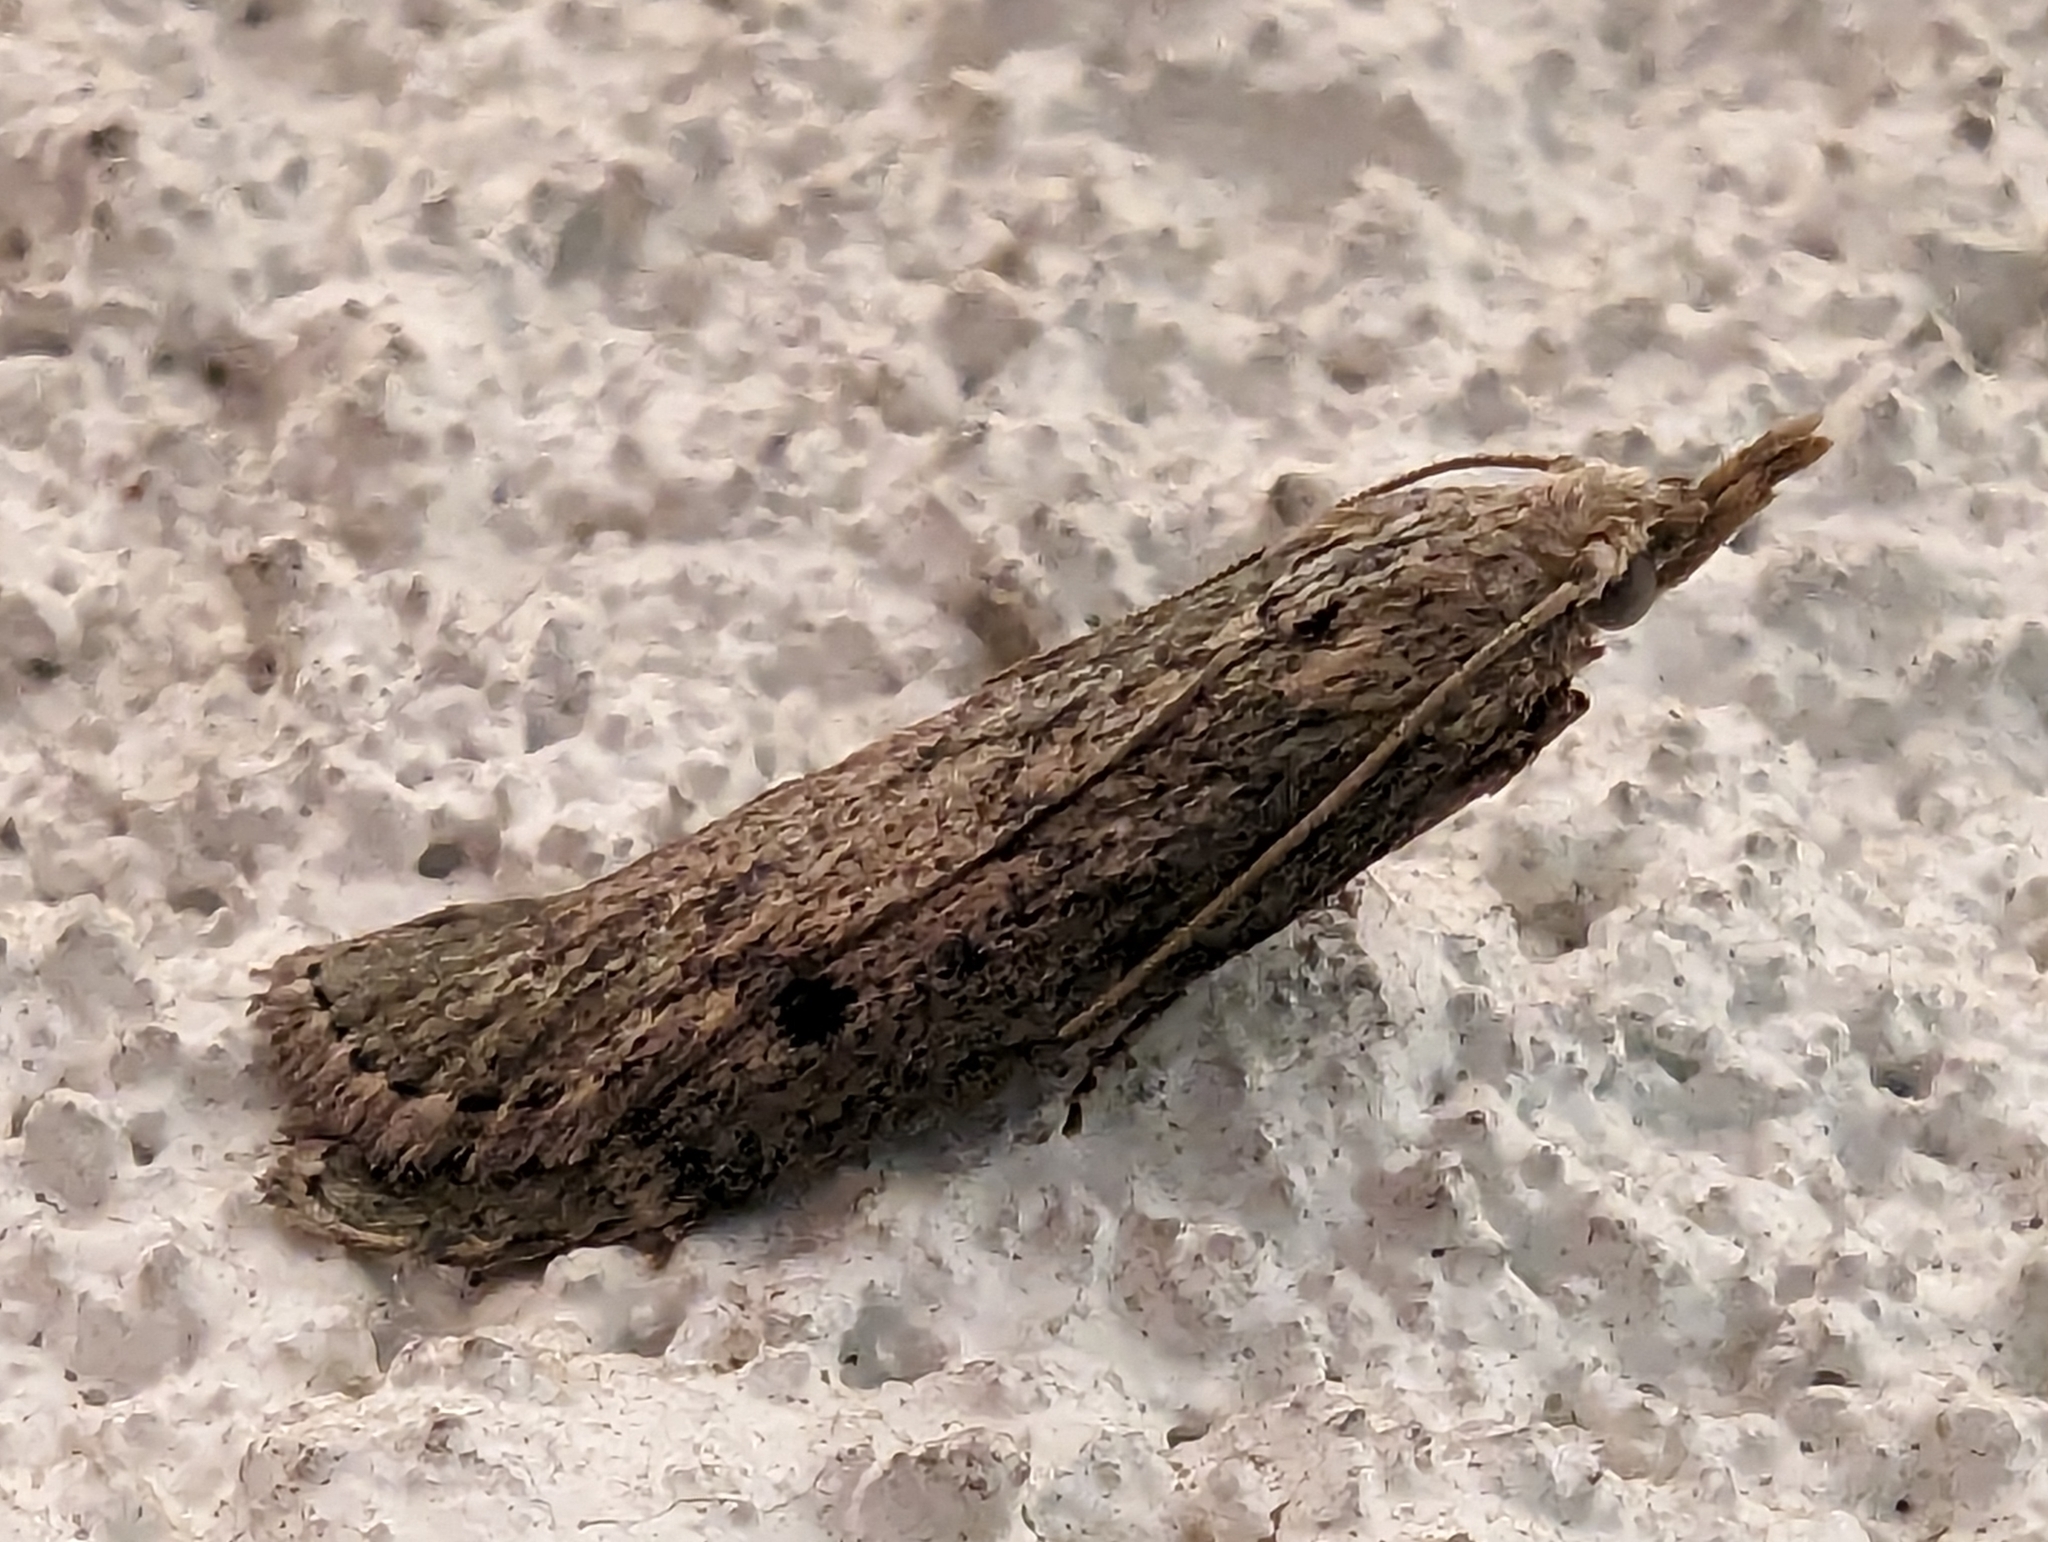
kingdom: Animalia
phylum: Arthropoda
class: Insecta
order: Lepidoptera
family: Pyralidae
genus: Aphomia
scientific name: Aphomia sociella
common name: Bee moth
